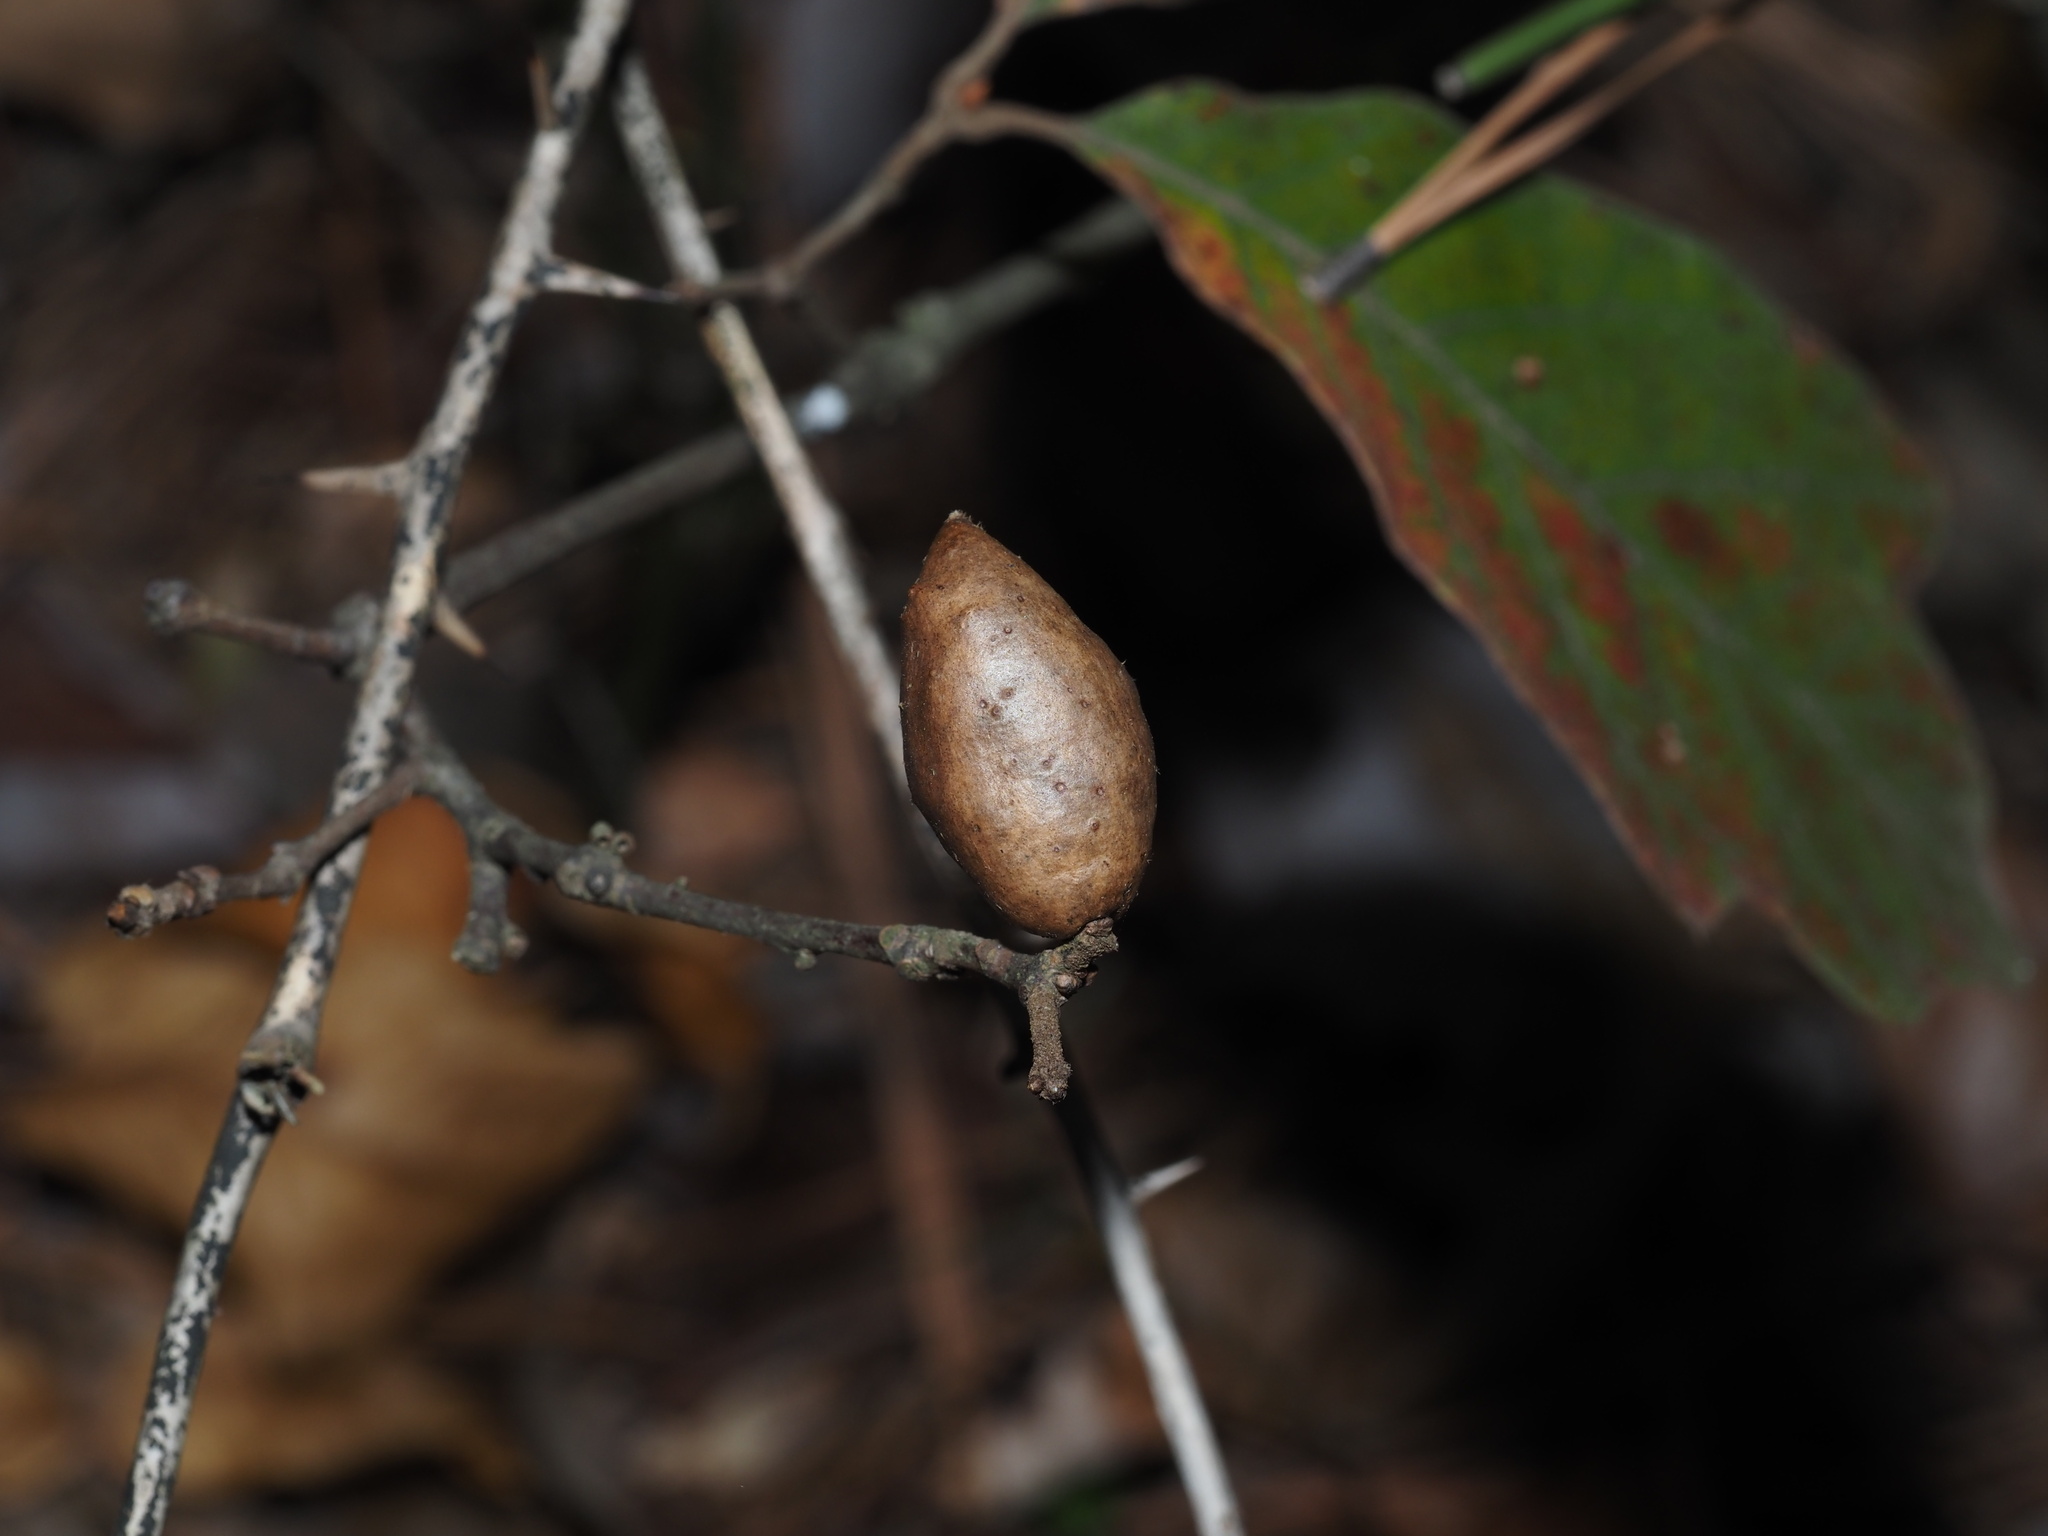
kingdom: Animalia
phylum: Arthropoda
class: Insecta
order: Hymenoptera
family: Cynipidae
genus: Amphibolips
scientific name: Amphibolips
